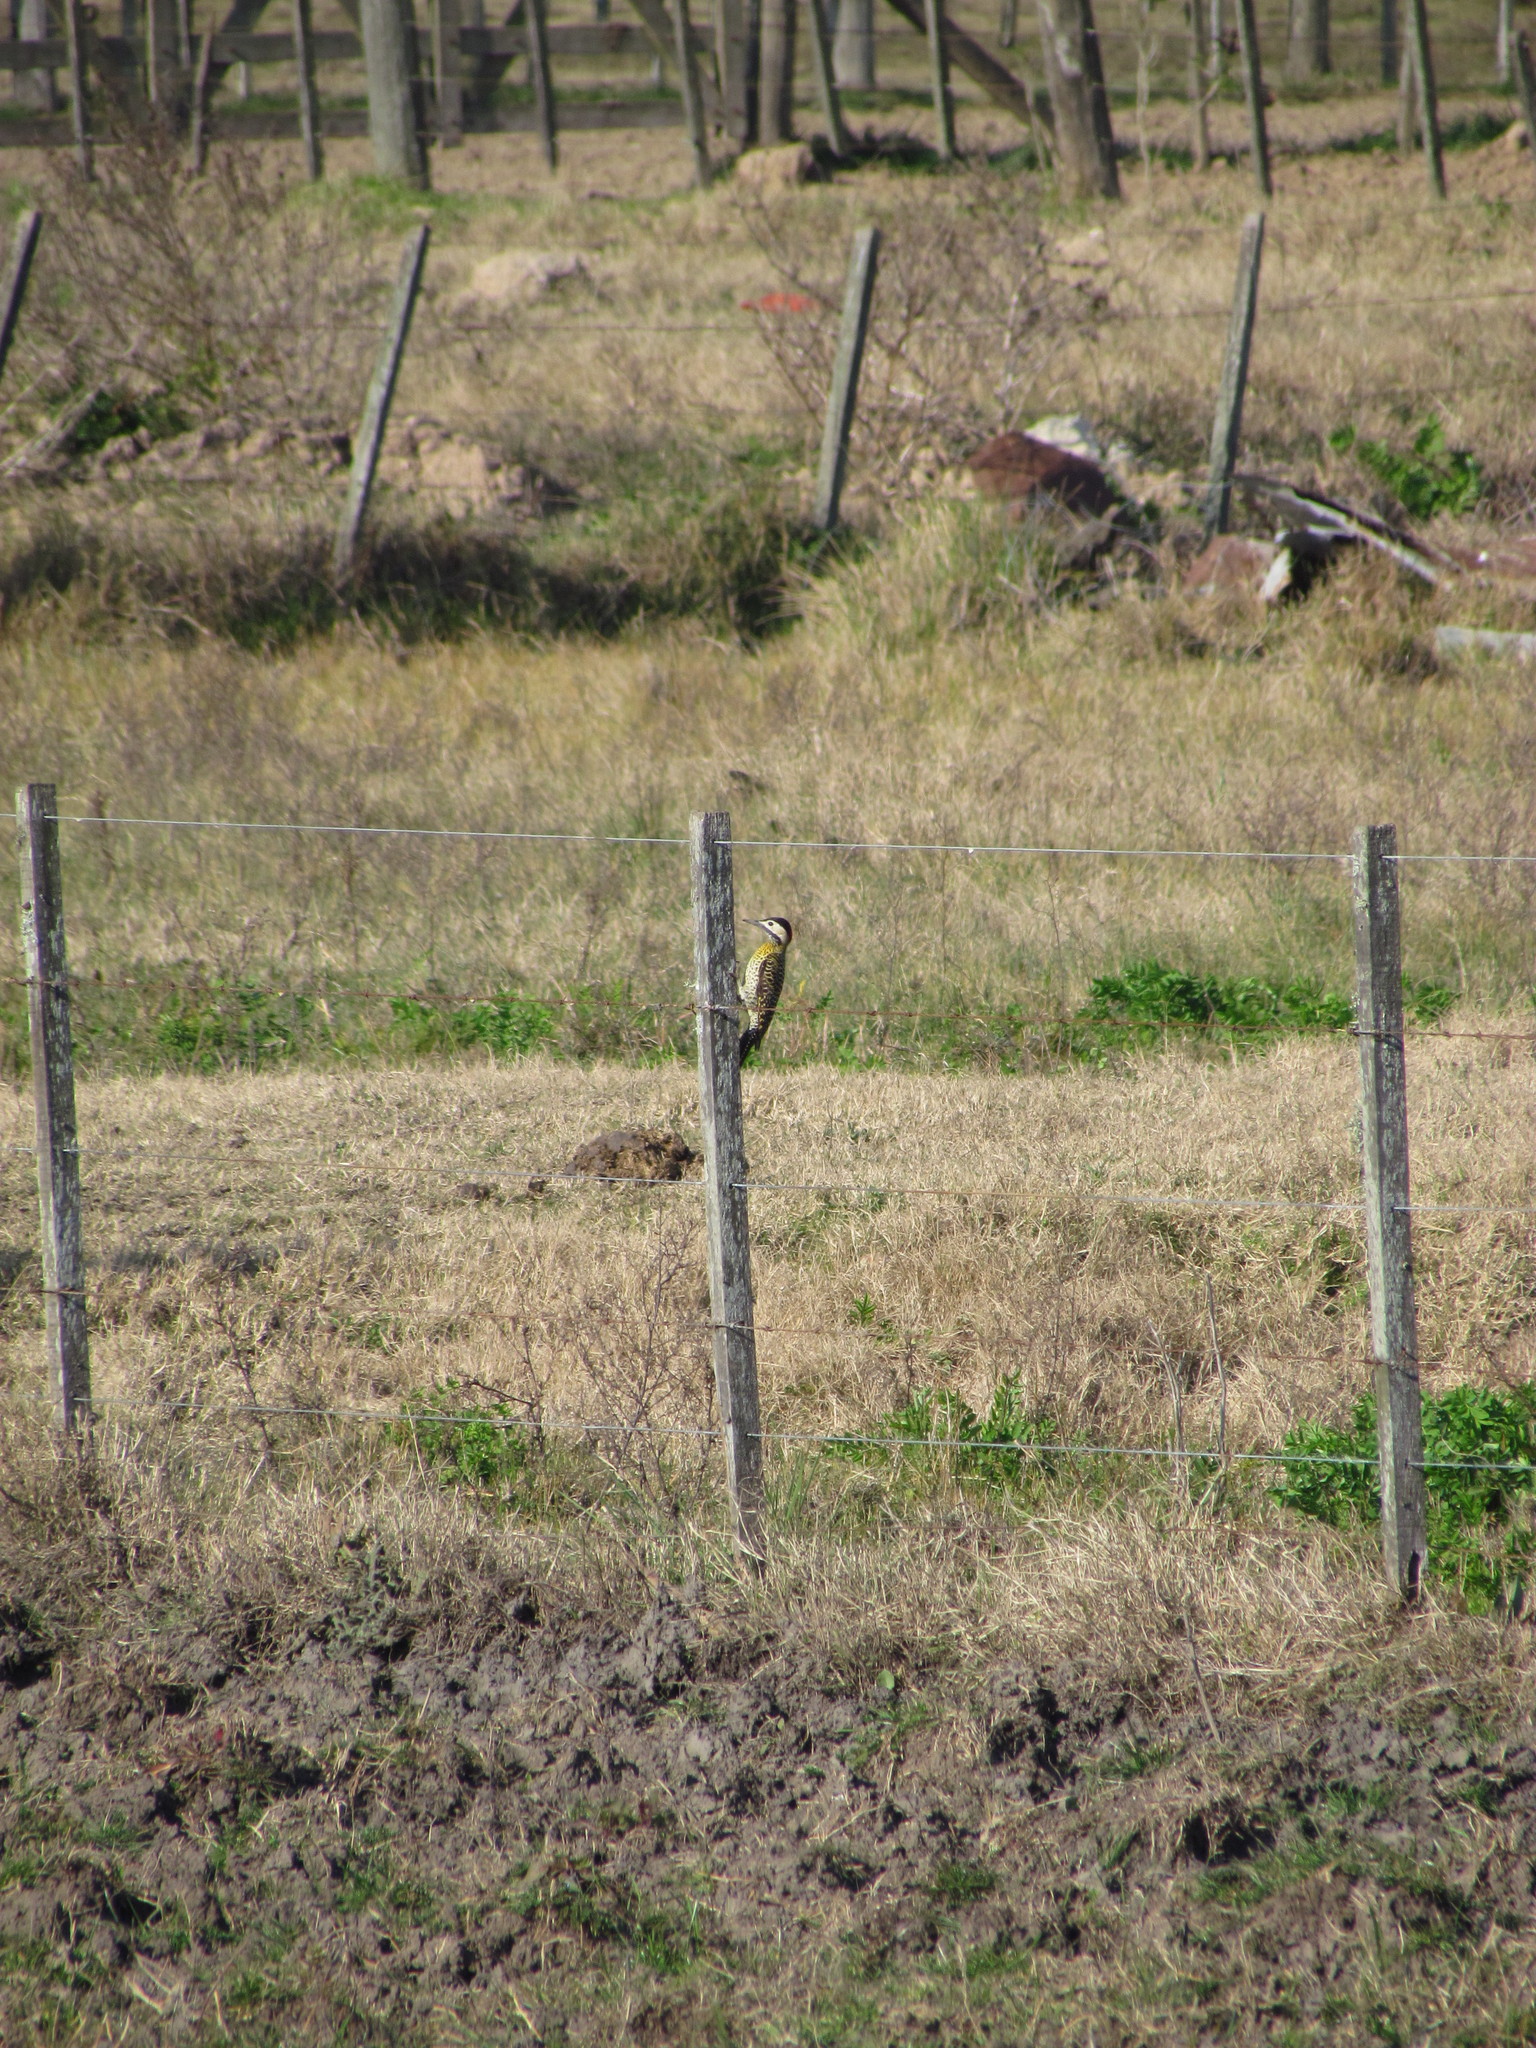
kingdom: Animalia
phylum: Chordata
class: Aves
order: Piciformes
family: Picidae
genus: Colaptes
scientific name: Colaptes melanochloros
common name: Green-barred woodpecker
